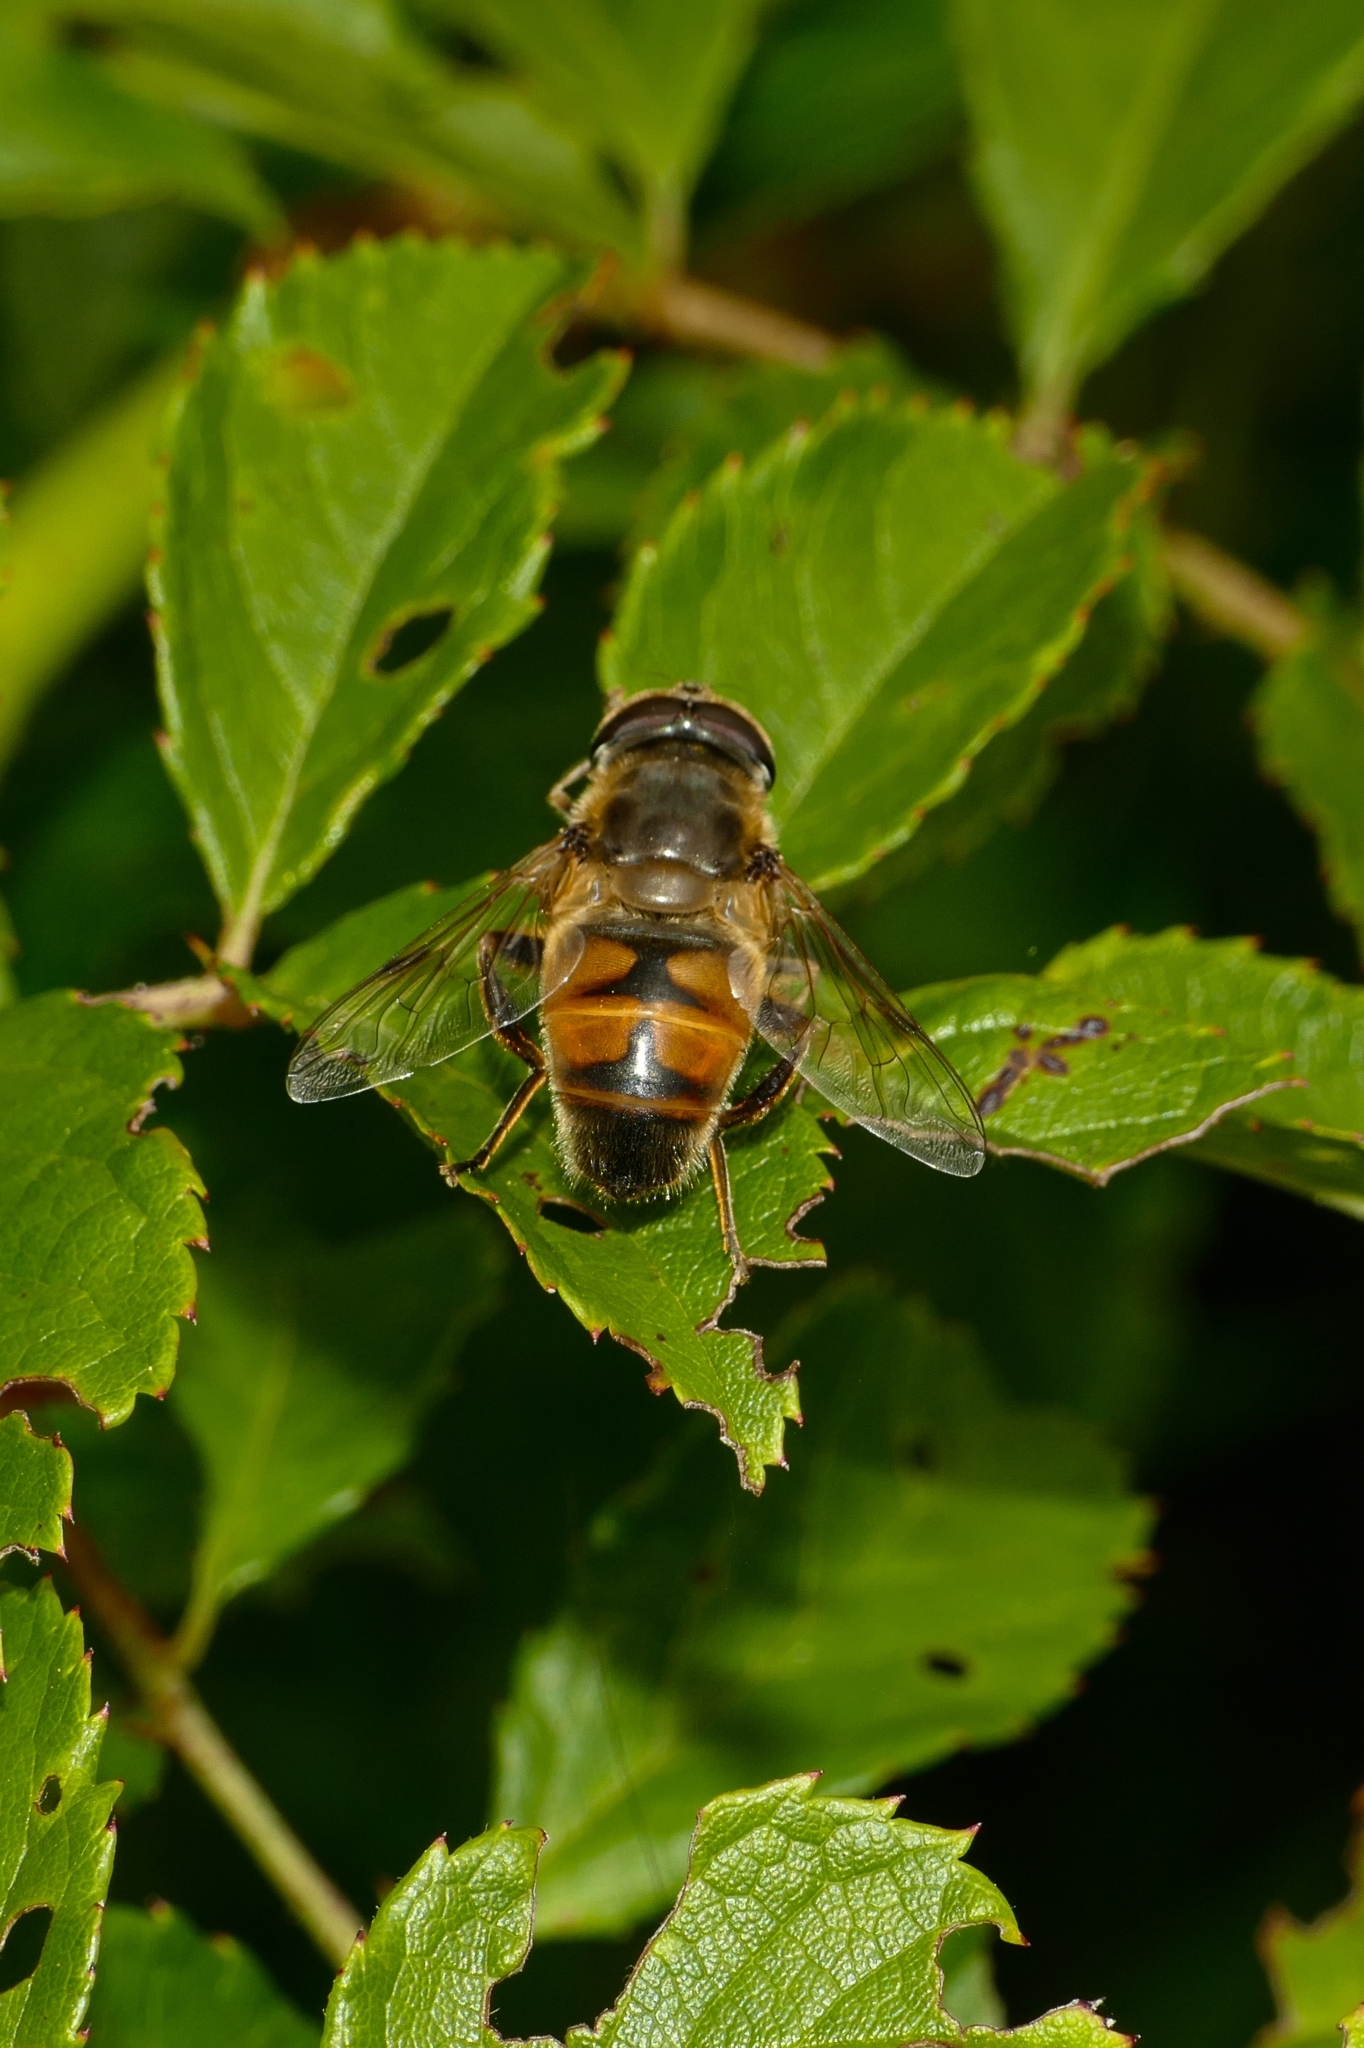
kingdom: Animalia
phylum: Arthropoda
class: Insecta
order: Diptera
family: Syrphidae
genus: Eristalis
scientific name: Eristalis tenax
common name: Drone fly
